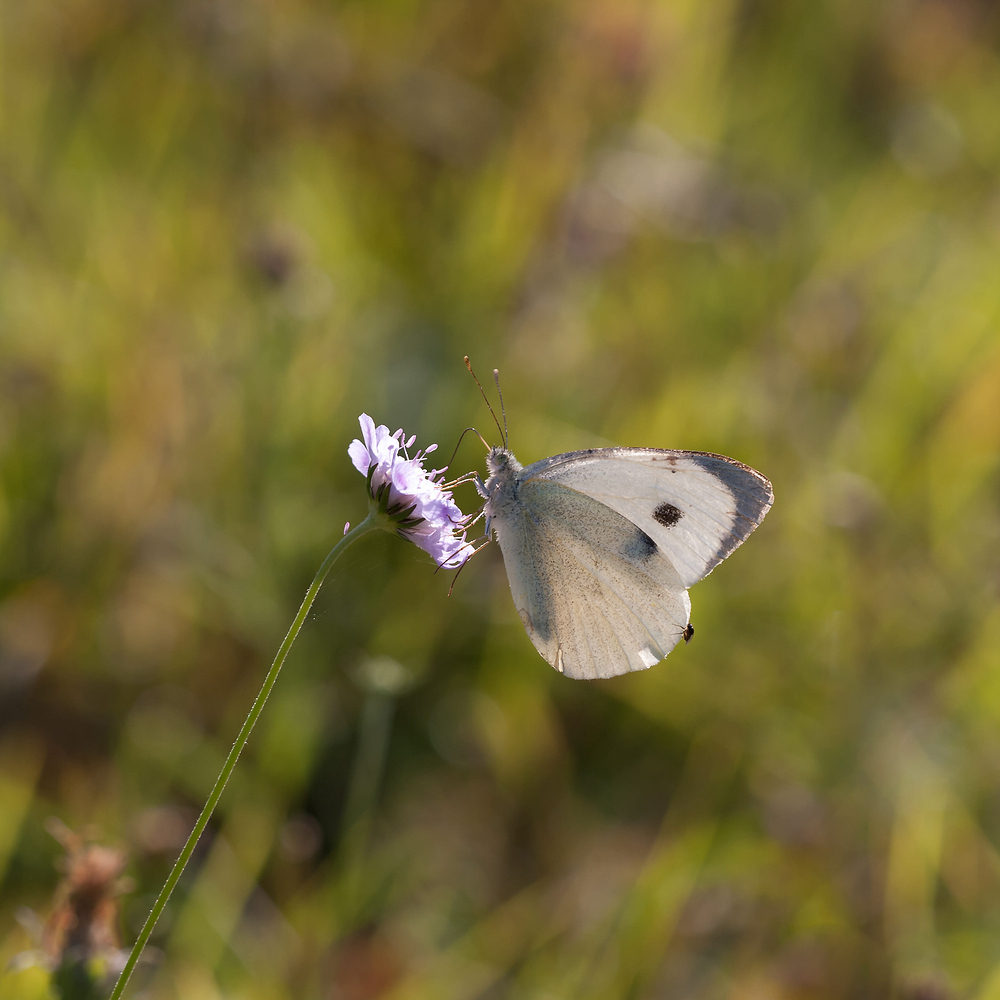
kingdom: Animalia
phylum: Arthropoda
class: Insecta
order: Lepidoptera
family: Pieridae
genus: Pieris
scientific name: Pieris brassicae
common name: Large white
